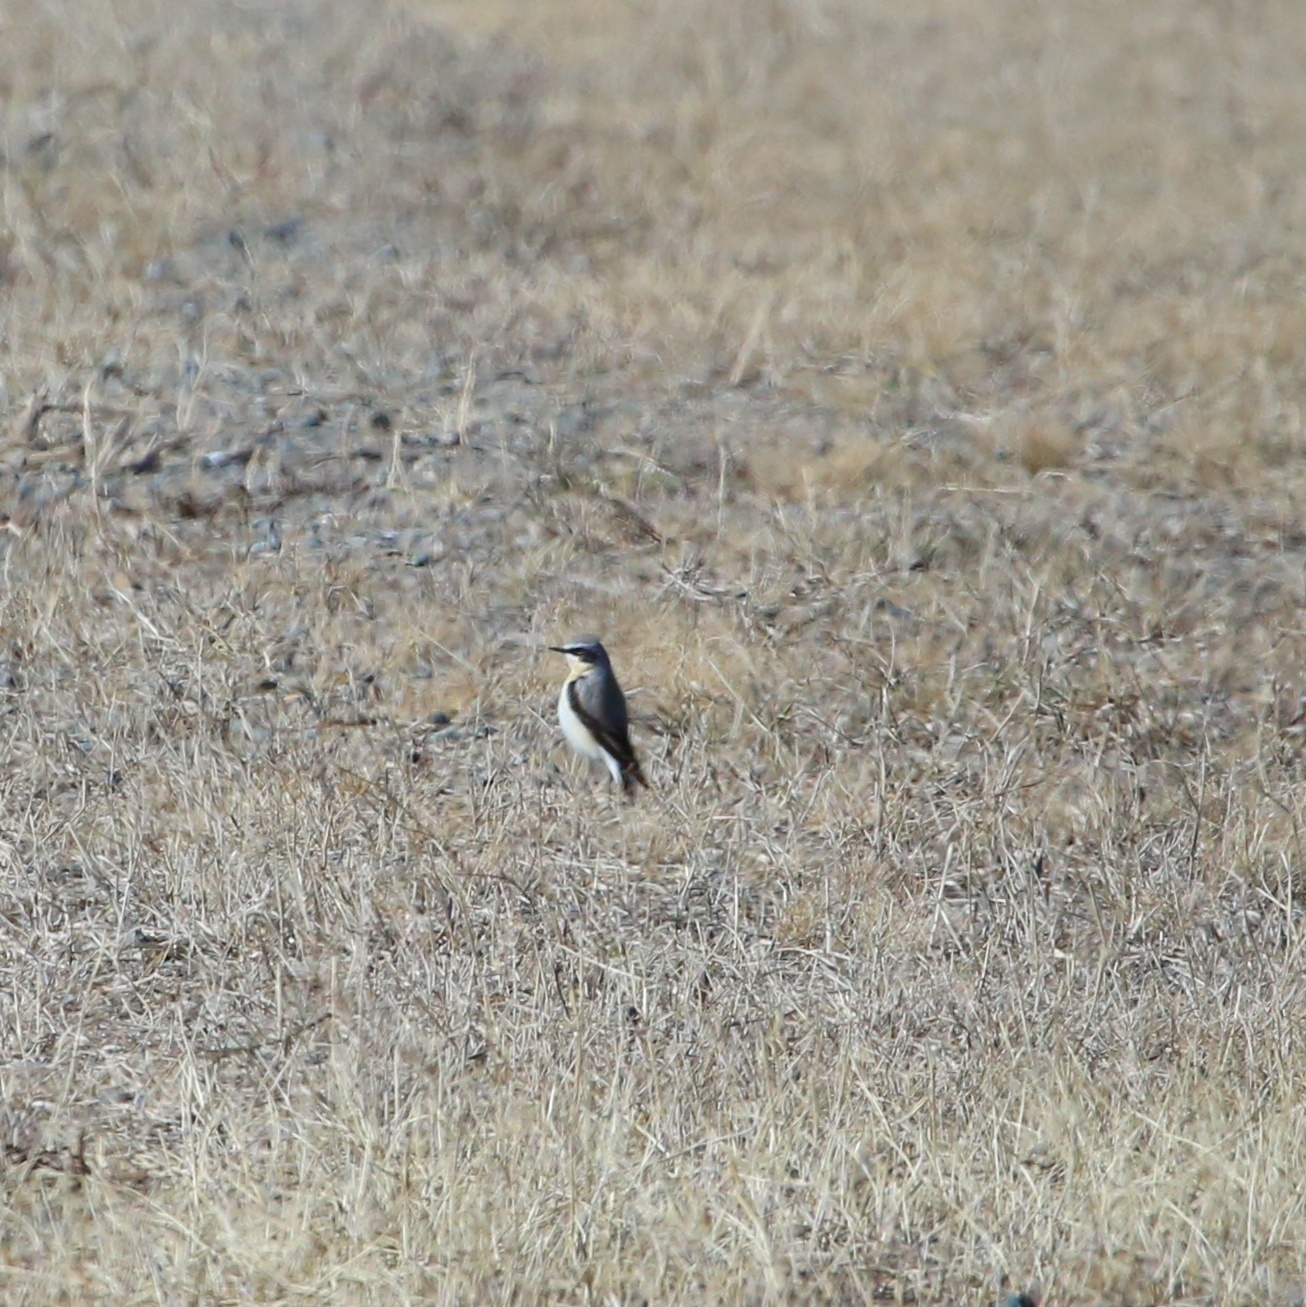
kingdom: Animalia
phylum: Chordata
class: Aves
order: Passeriformes
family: Muscicapidae
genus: Oenanthe
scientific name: Oenanthe oenanthe
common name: Northern wheatear
